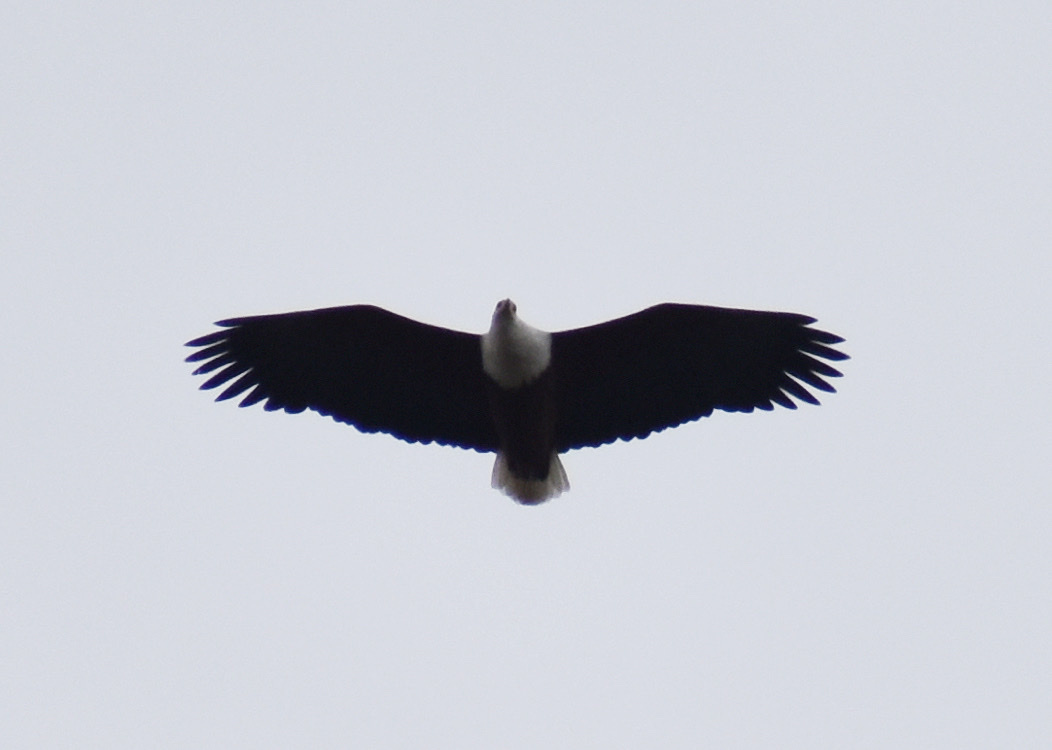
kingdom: Animalia
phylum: Chordata
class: Aves
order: Accipitriformes
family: Accipitridae
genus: Haliaeetus
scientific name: Haliaeetus vocifer
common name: African fish eagle
